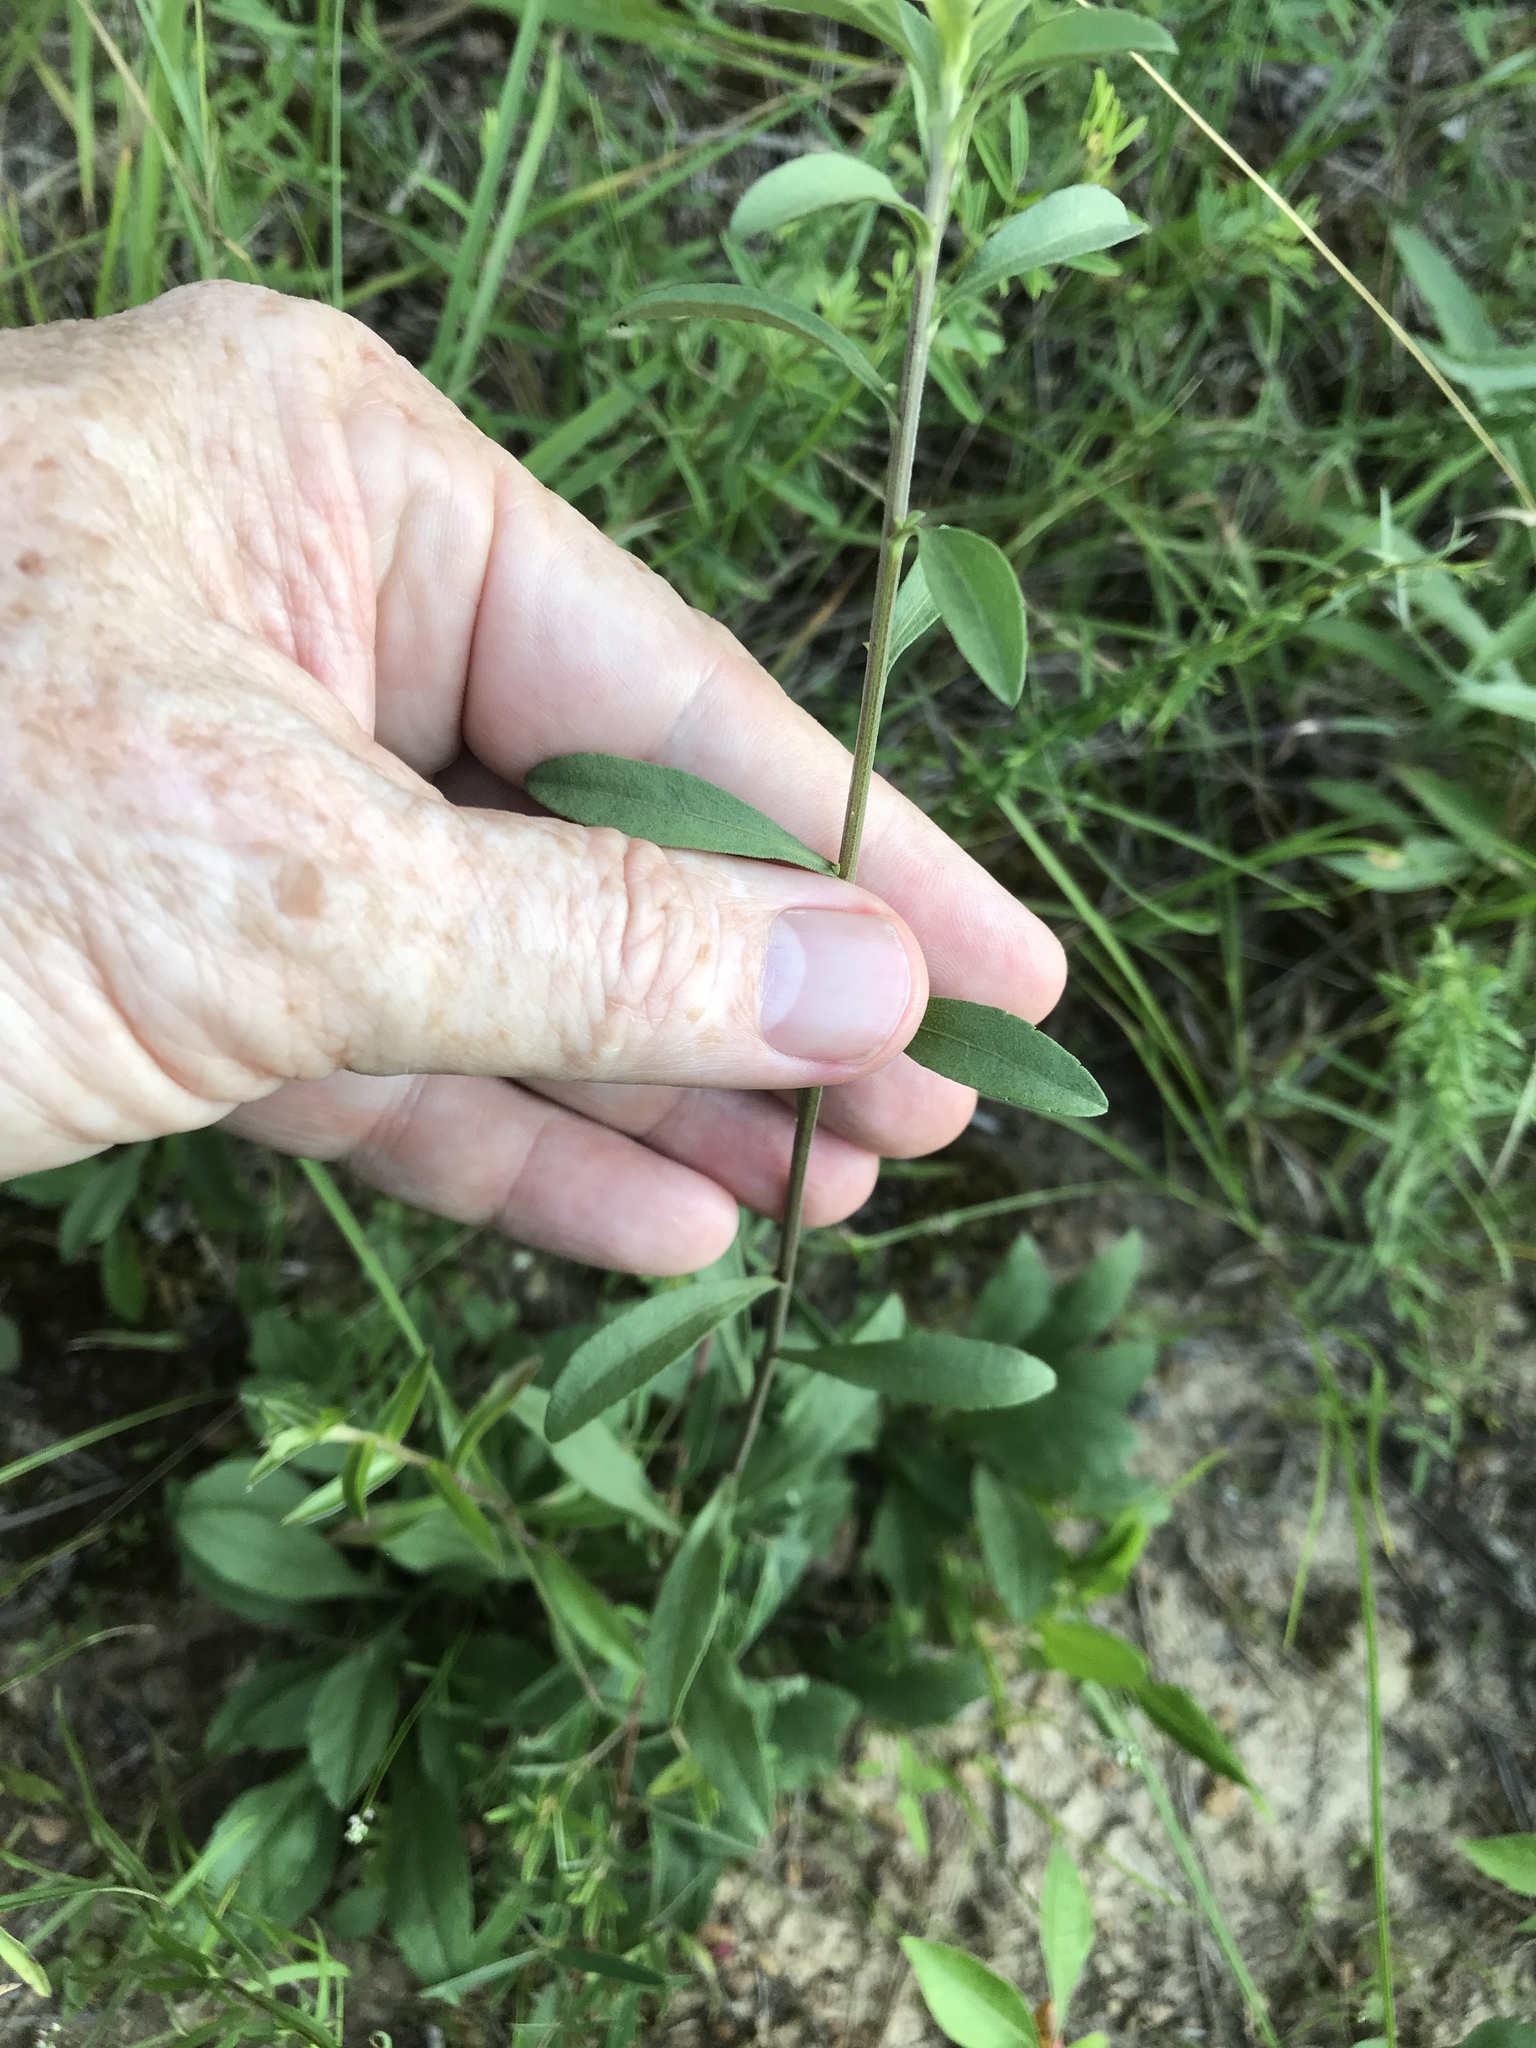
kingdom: Plantae
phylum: Tracheophyta
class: Magnoliopsida
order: Asterales
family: Asteraceae
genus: Solidago
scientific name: Solidago nemoralis
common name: Grey goldenrod
